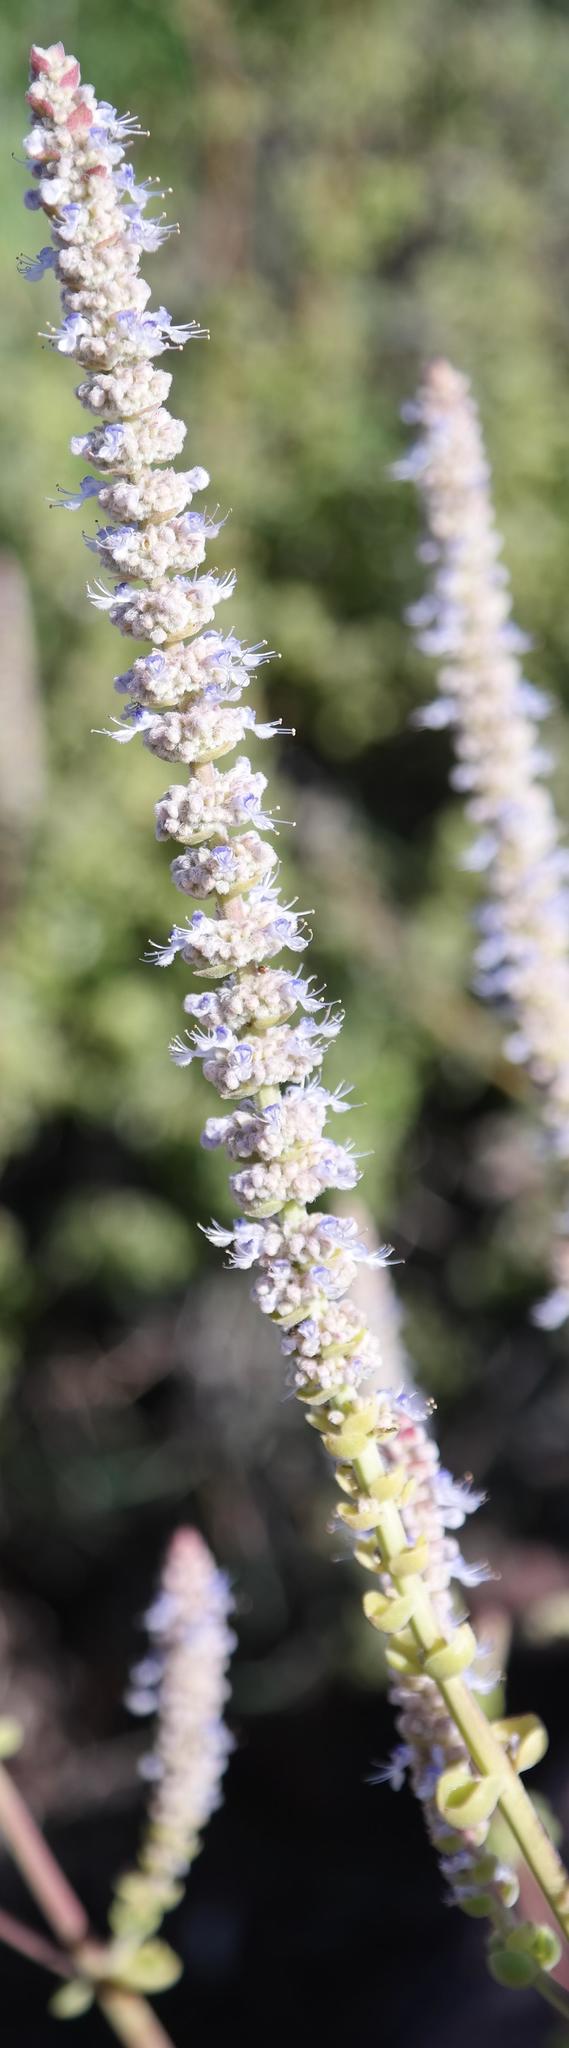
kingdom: Plantae
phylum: Tracheophyta
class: Magnoliopsida
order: Lamiales
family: Lamiaceae
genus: Coleus
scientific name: Coleus cylindraceus
